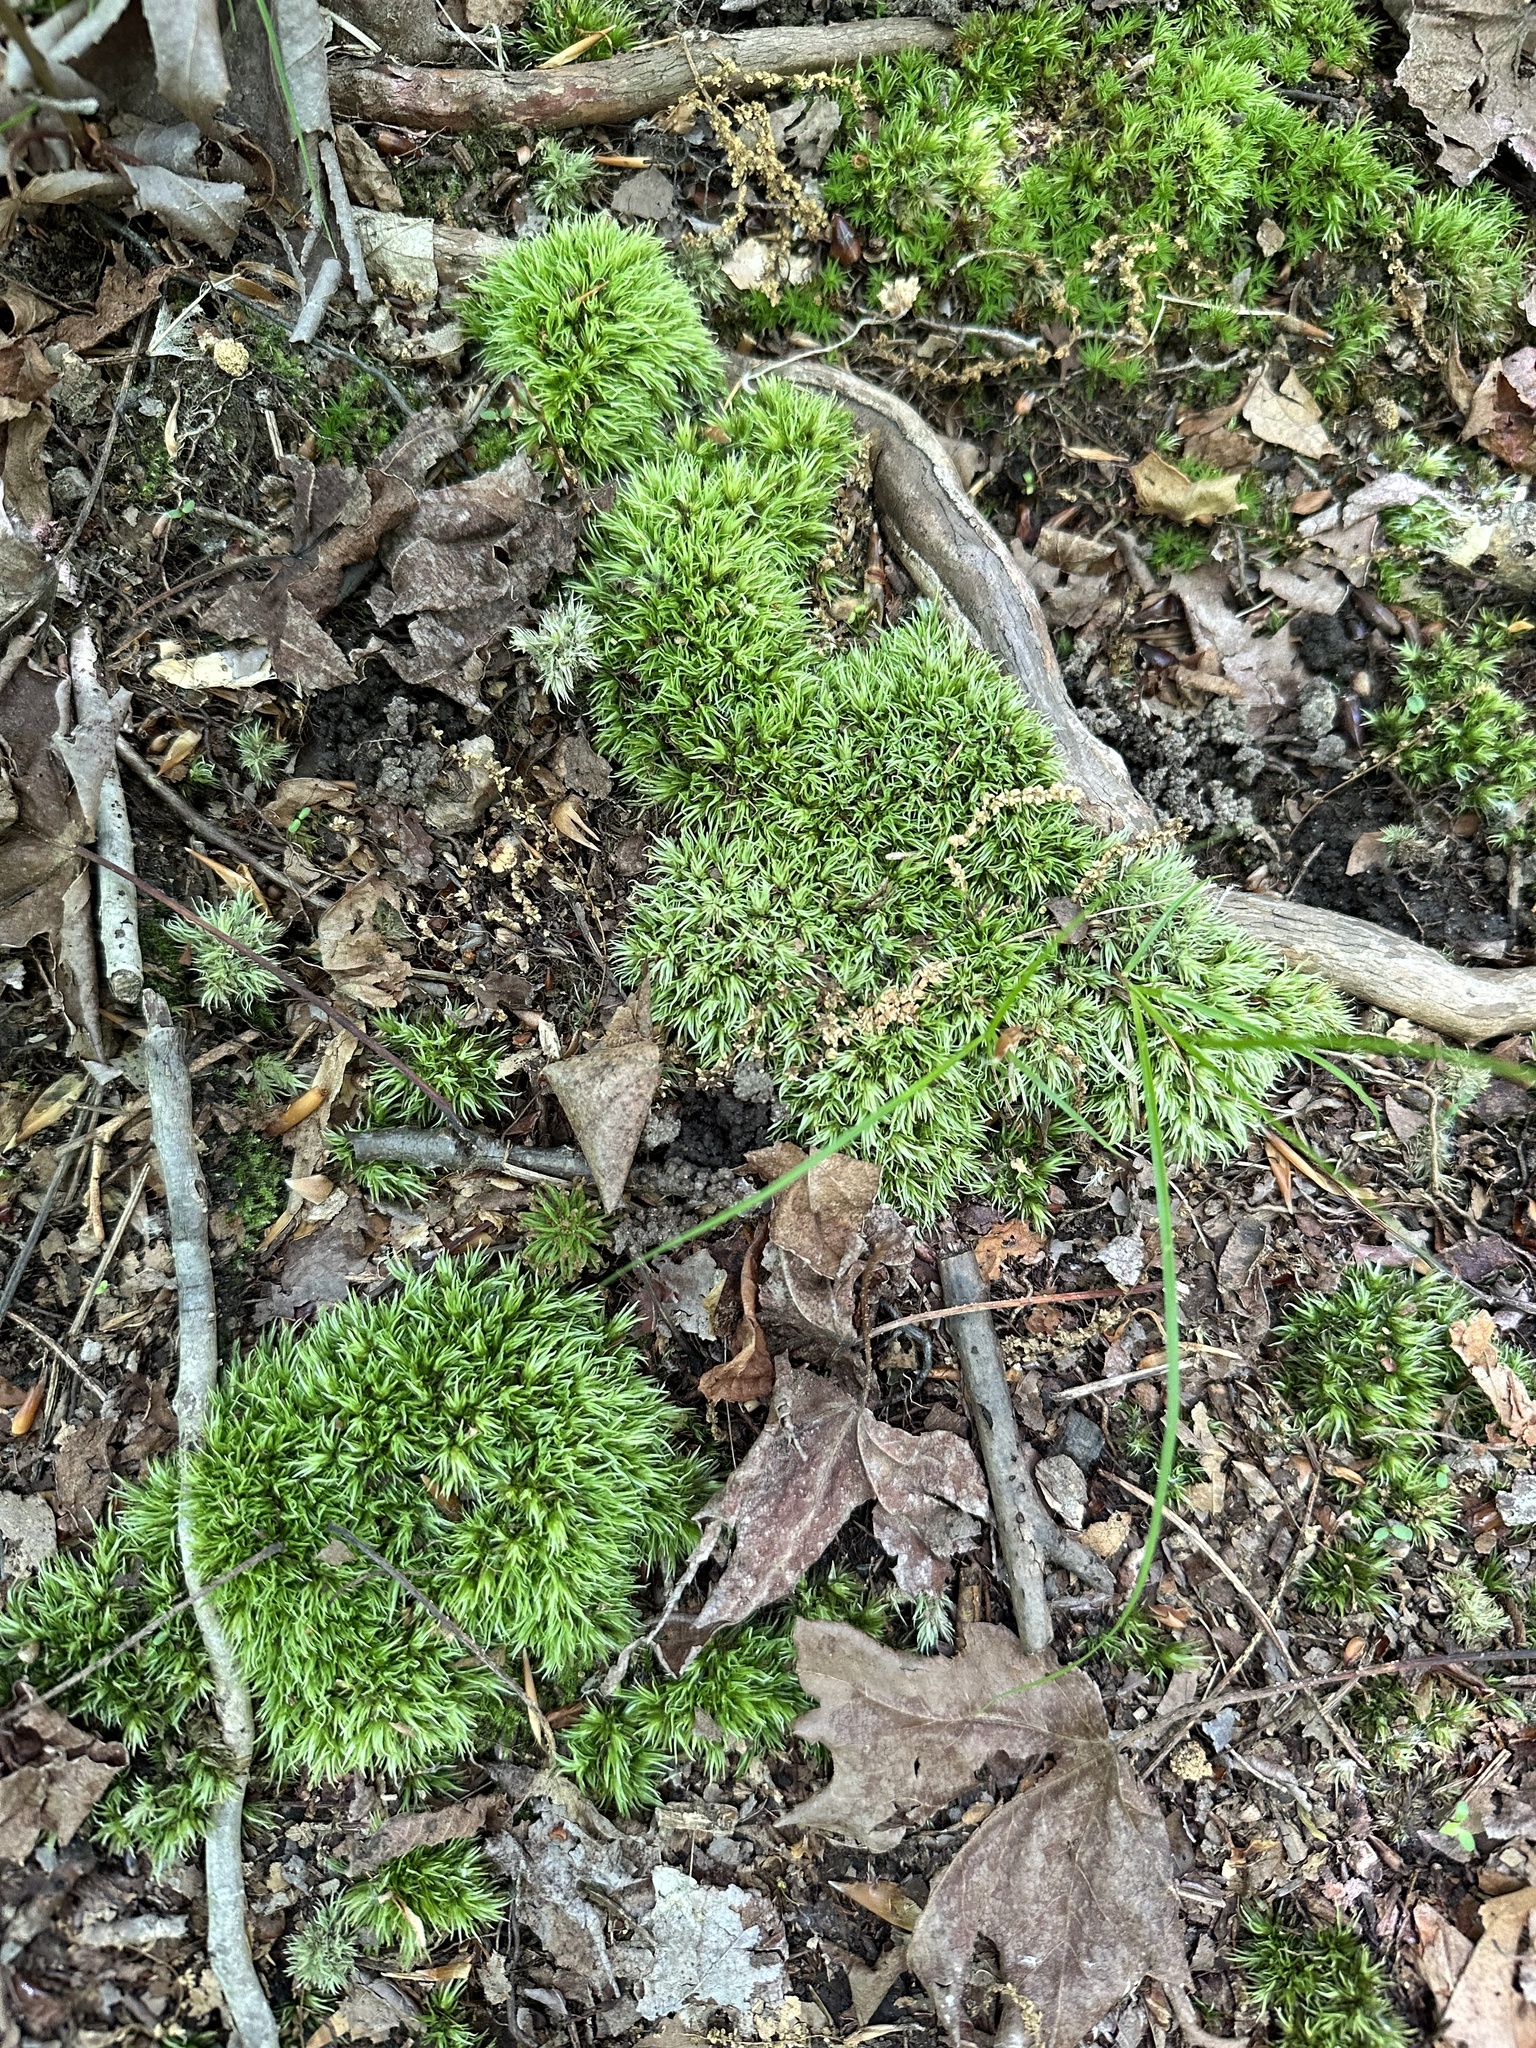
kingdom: Plantae
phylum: Bryophyta
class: Bryopsida
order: Dicranales
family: Leucobryaceae
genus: Leucobryum
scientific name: Leucobryum glaucum
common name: Large white-moss
